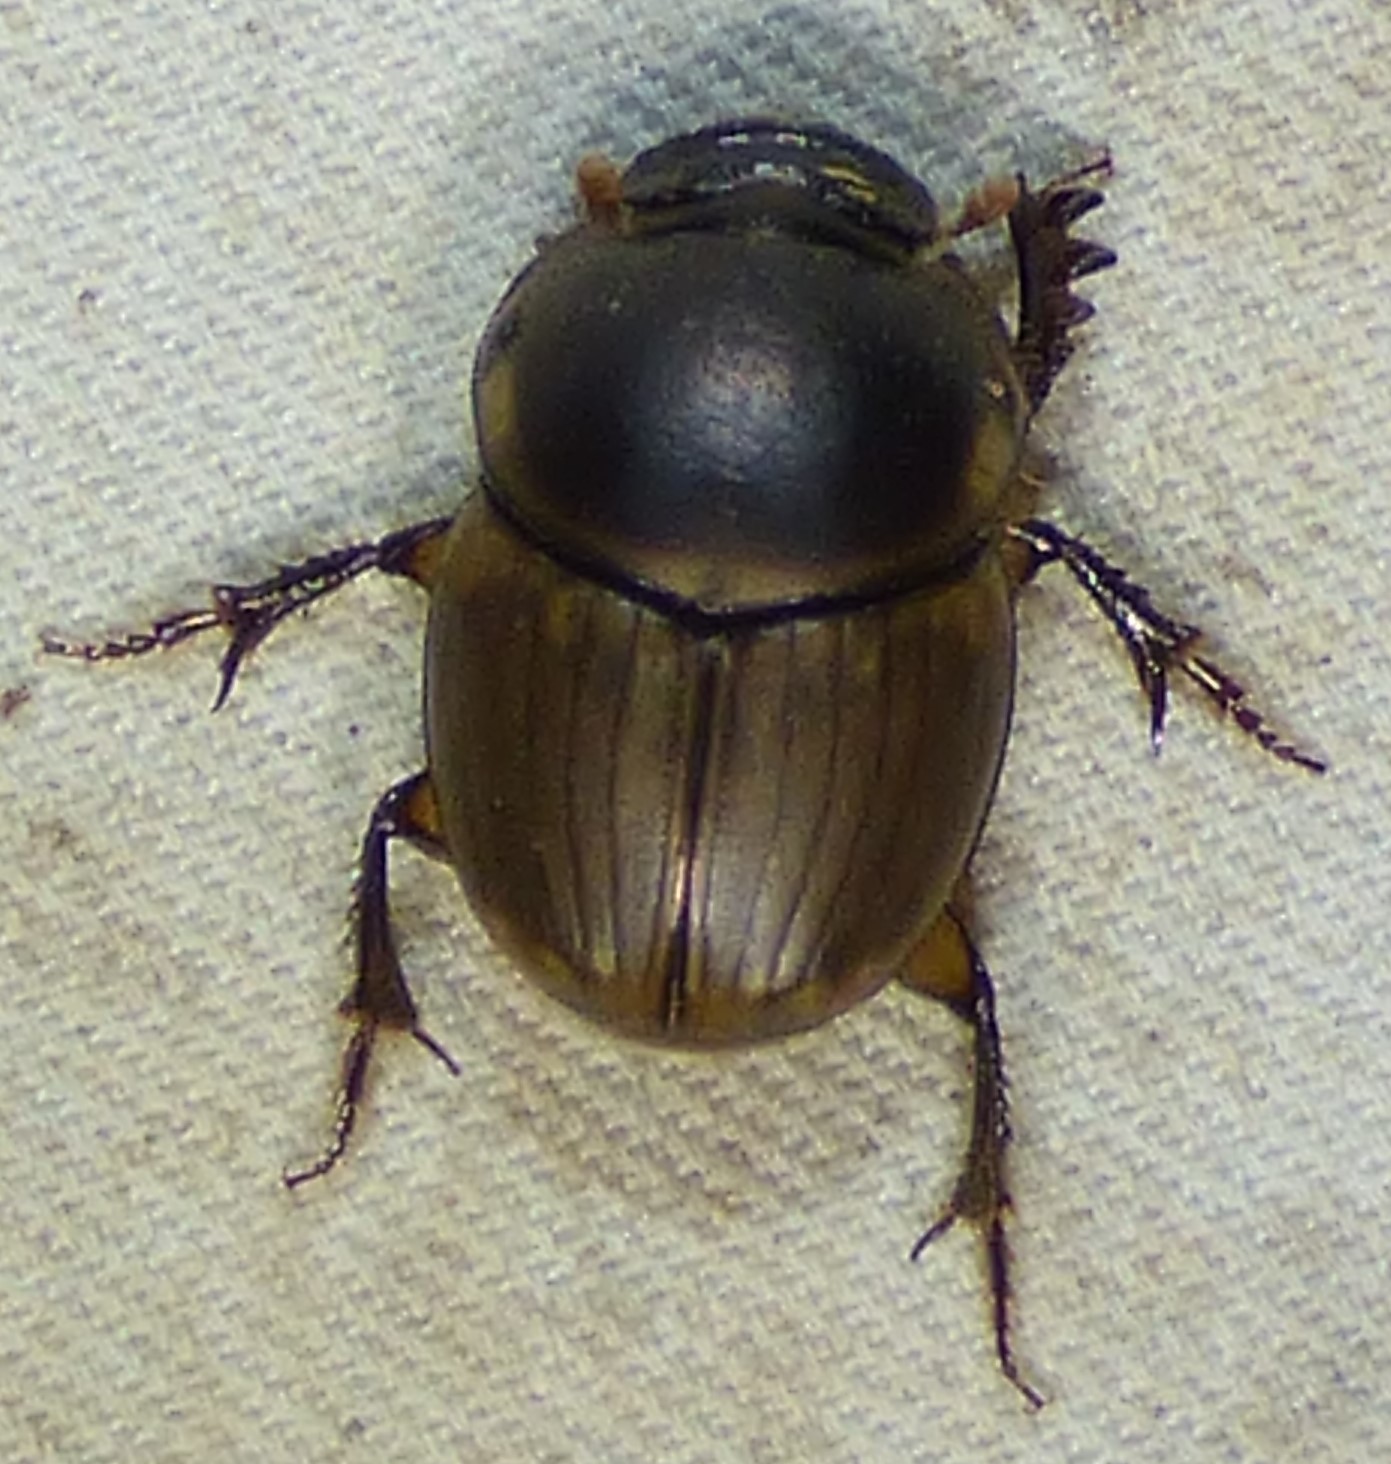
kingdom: Animalia
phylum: Arthropoda
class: Insecta
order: Coleoptera
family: Scarabaeidae
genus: Digitonthophagus
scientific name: Digitonthophagus gazella
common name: Brown dung beetle
